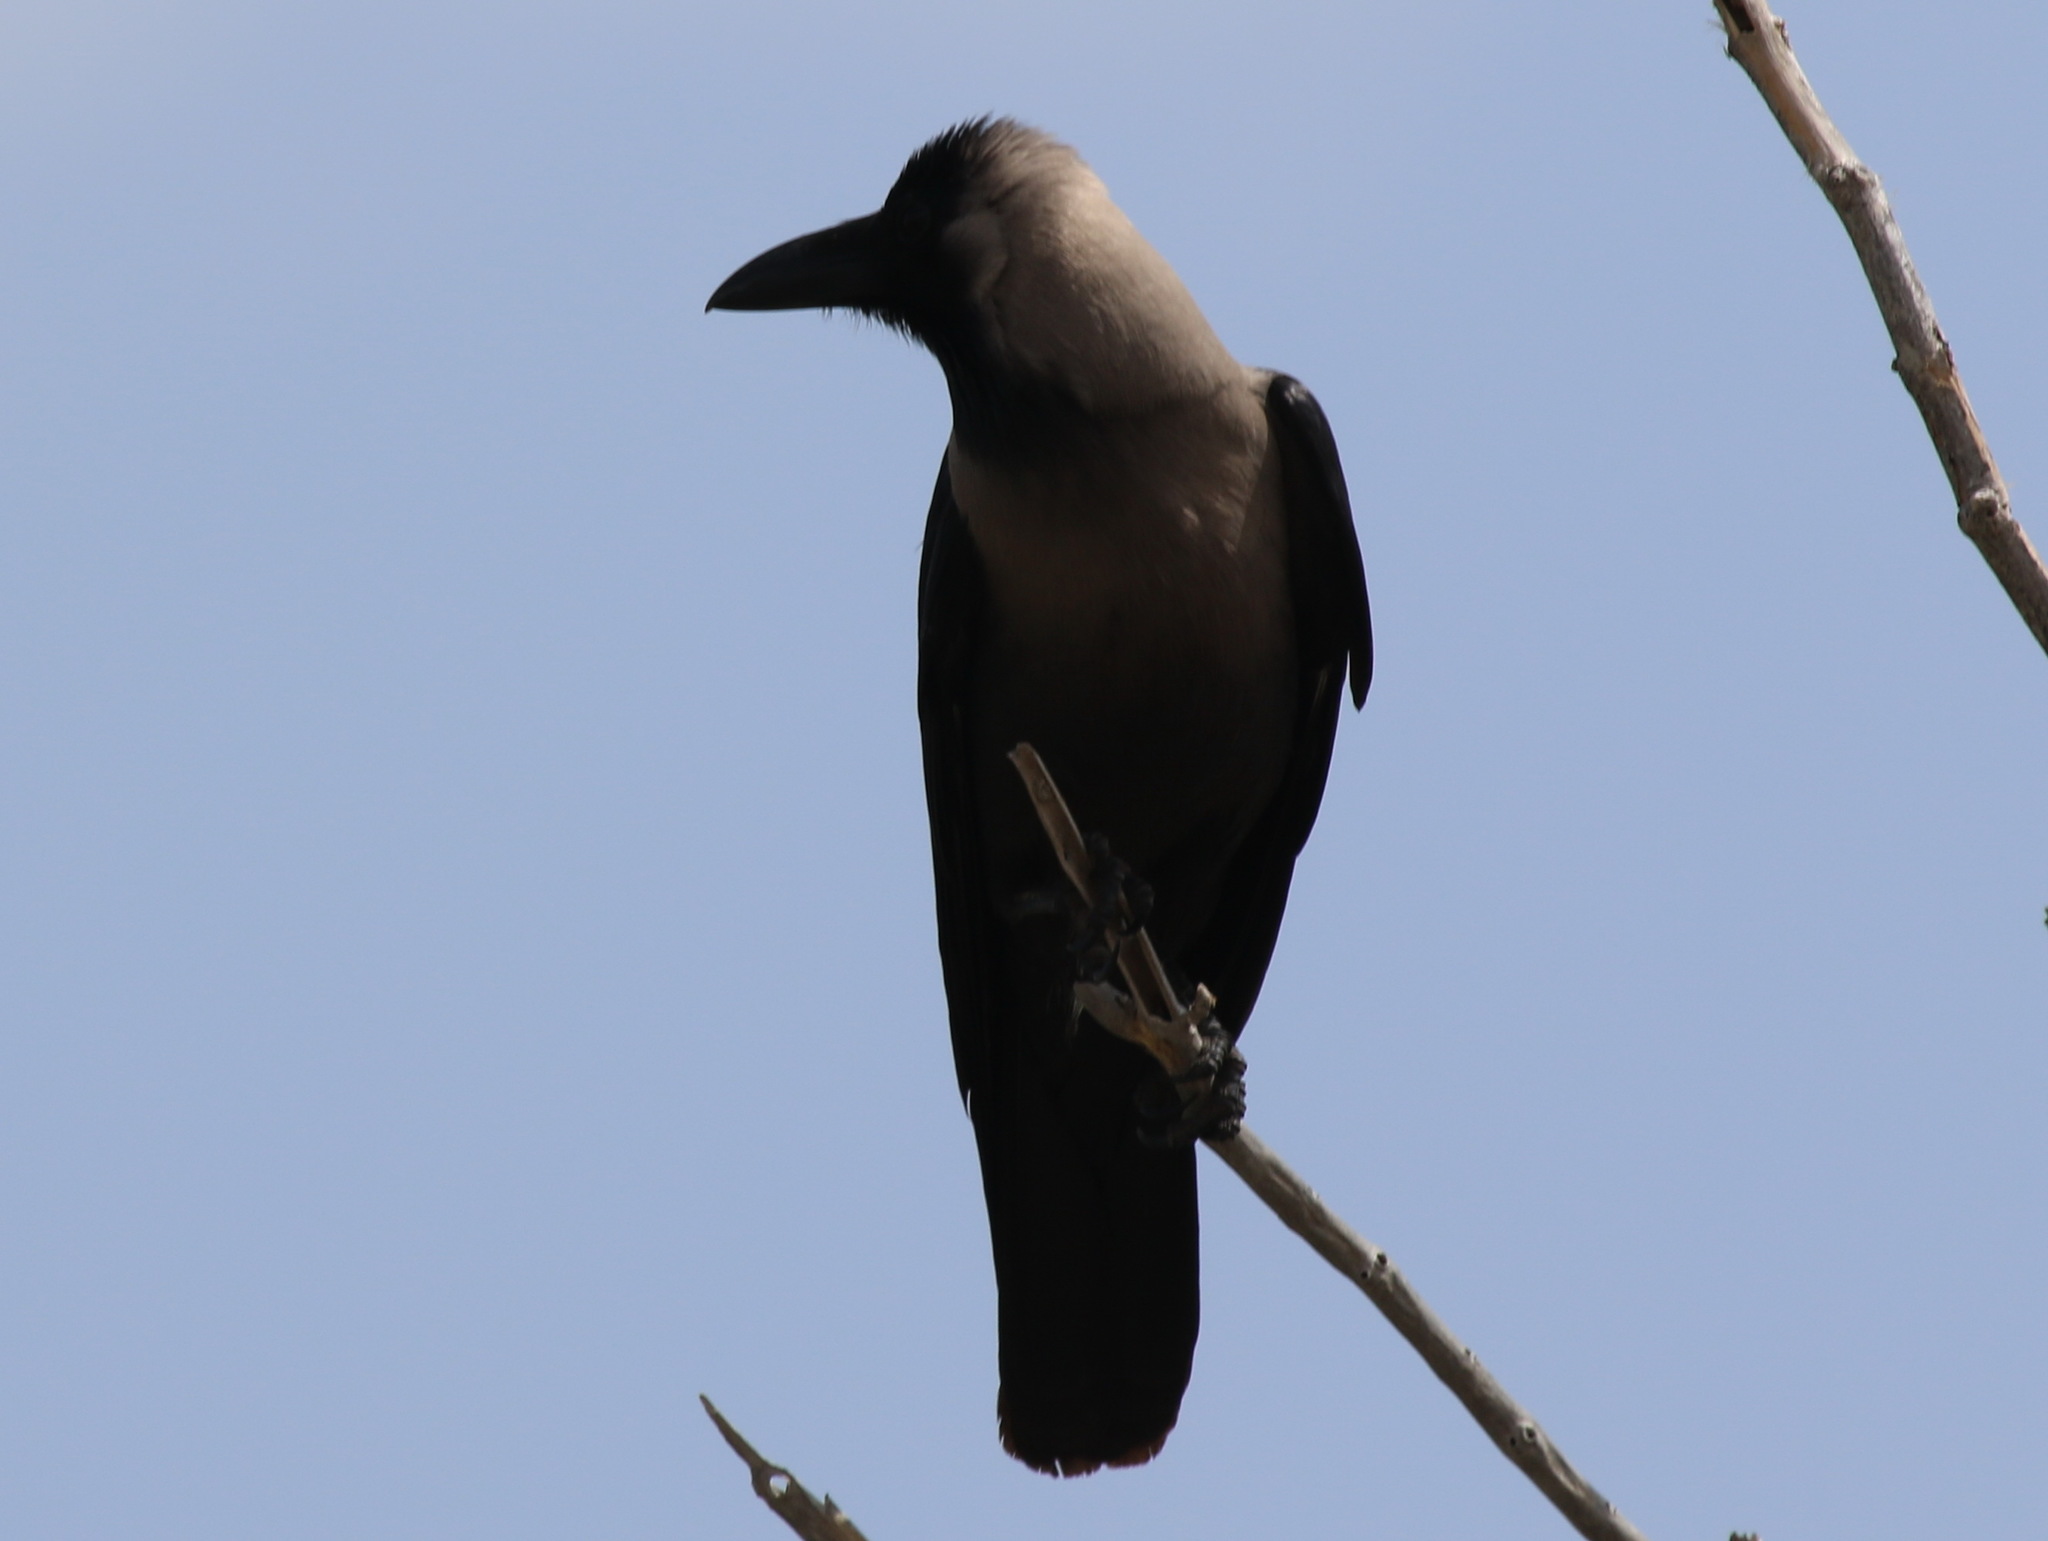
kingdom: Animalia
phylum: Chordata
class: Aves
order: Passeriformes
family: Corvidae
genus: Corvus
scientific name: Corvus splendens
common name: House crow
